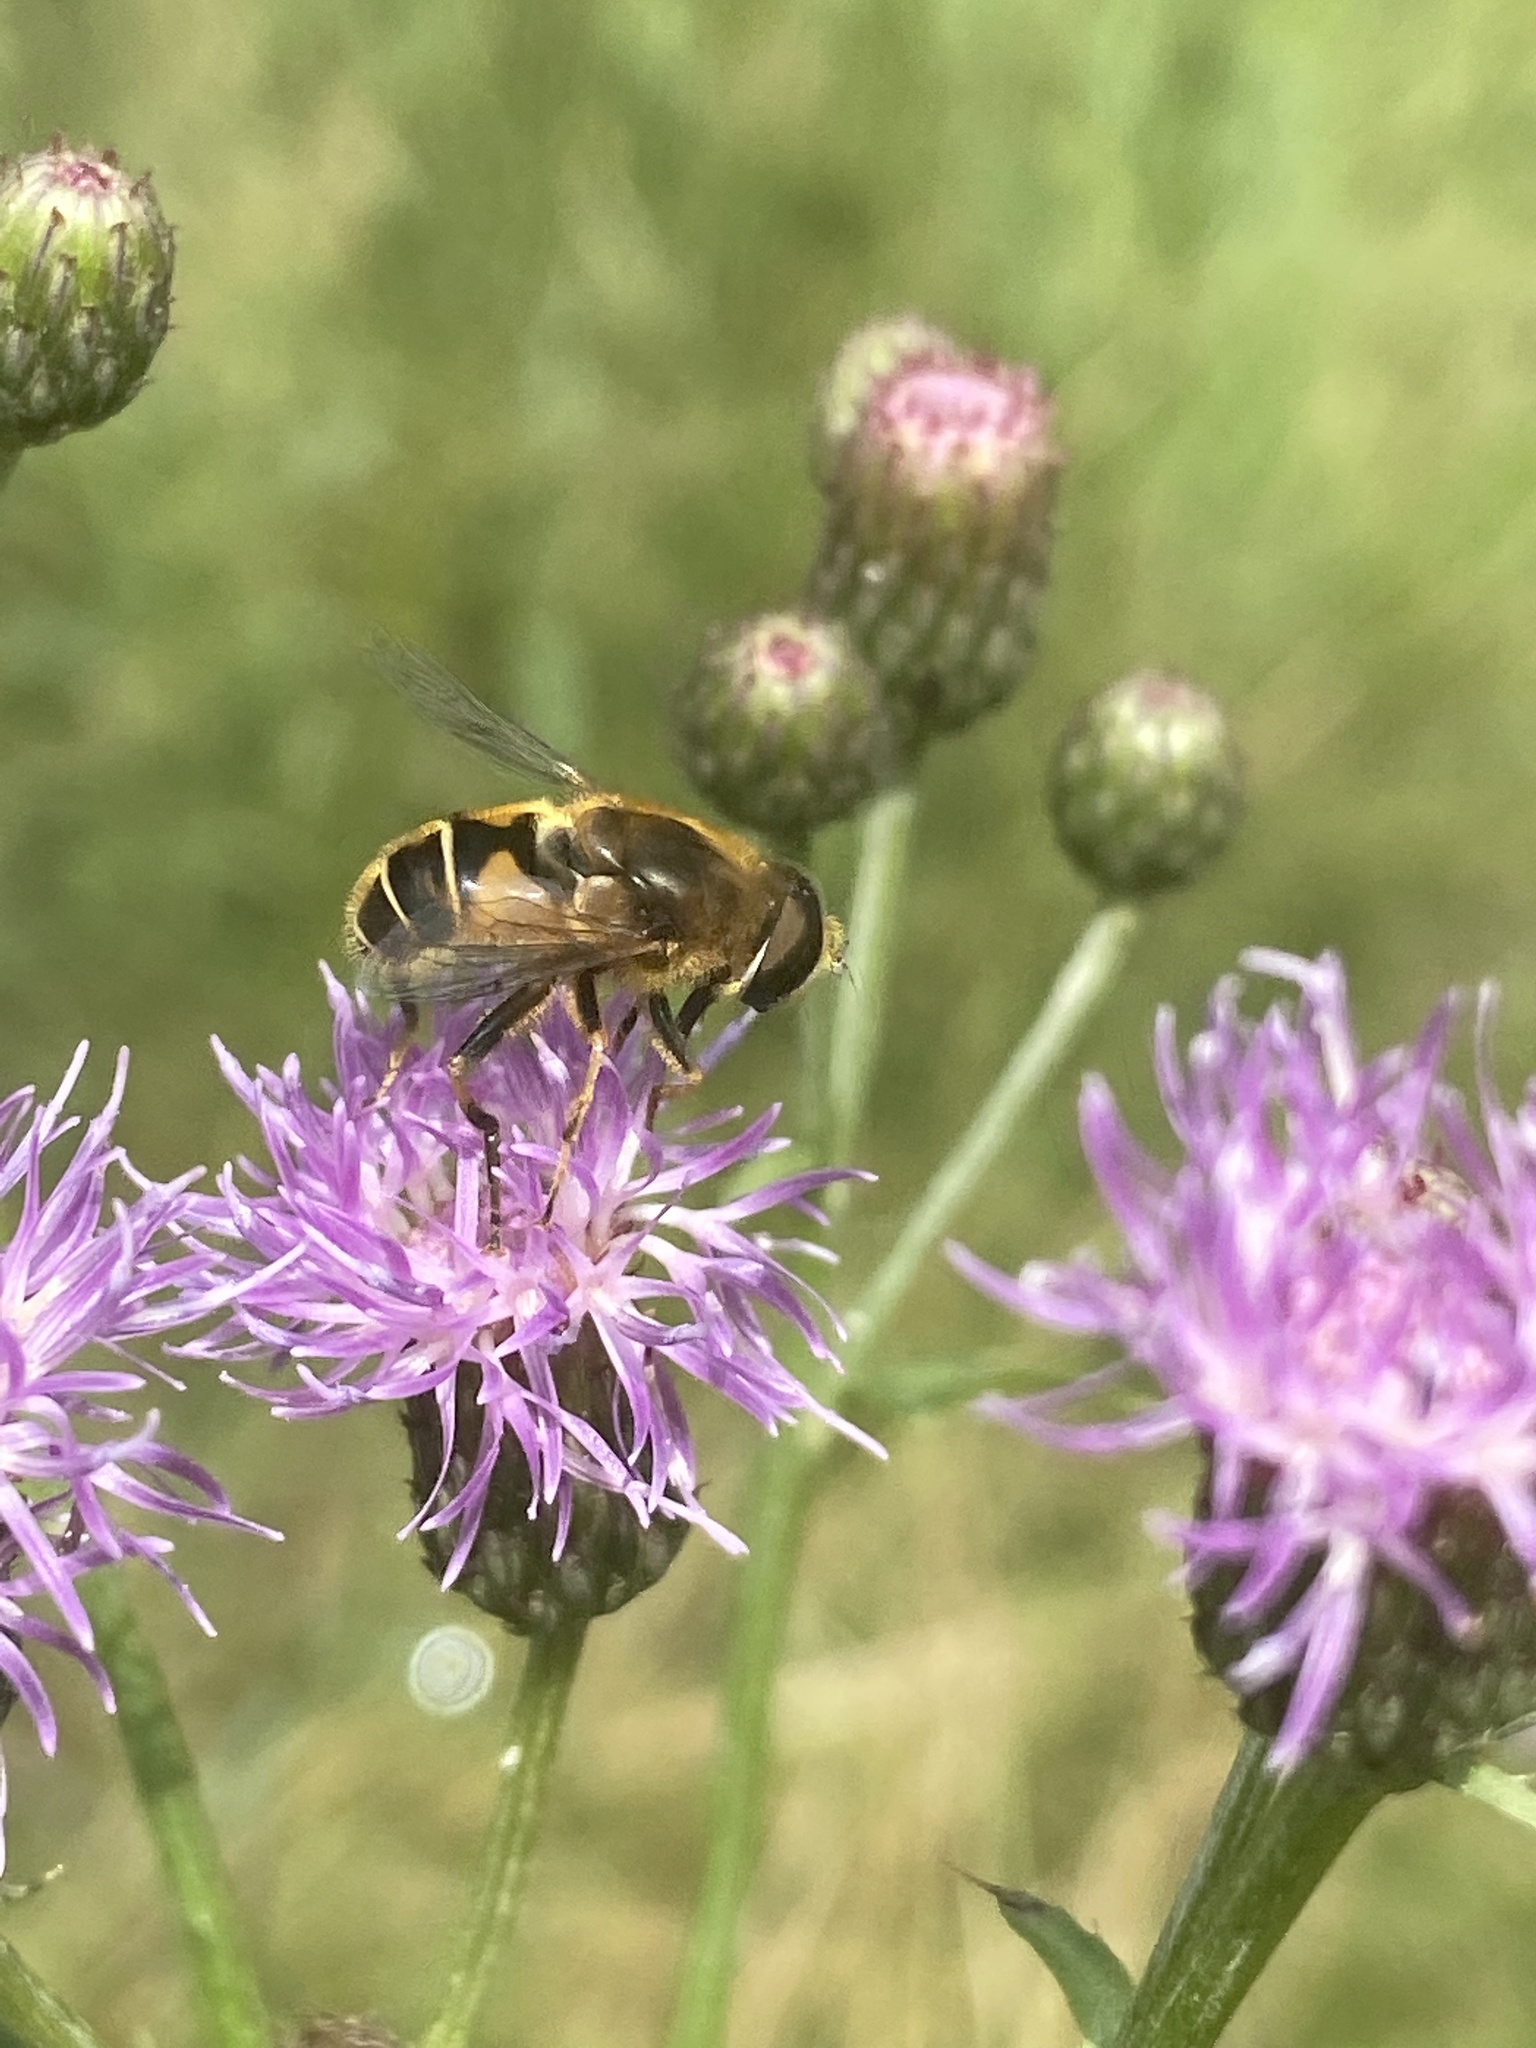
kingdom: Animalia
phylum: Arthropoda
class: Insecta
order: Diptera
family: Syrphidae
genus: Eristalis
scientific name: Eristalis nemorum
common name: Orange-spined drone fly
